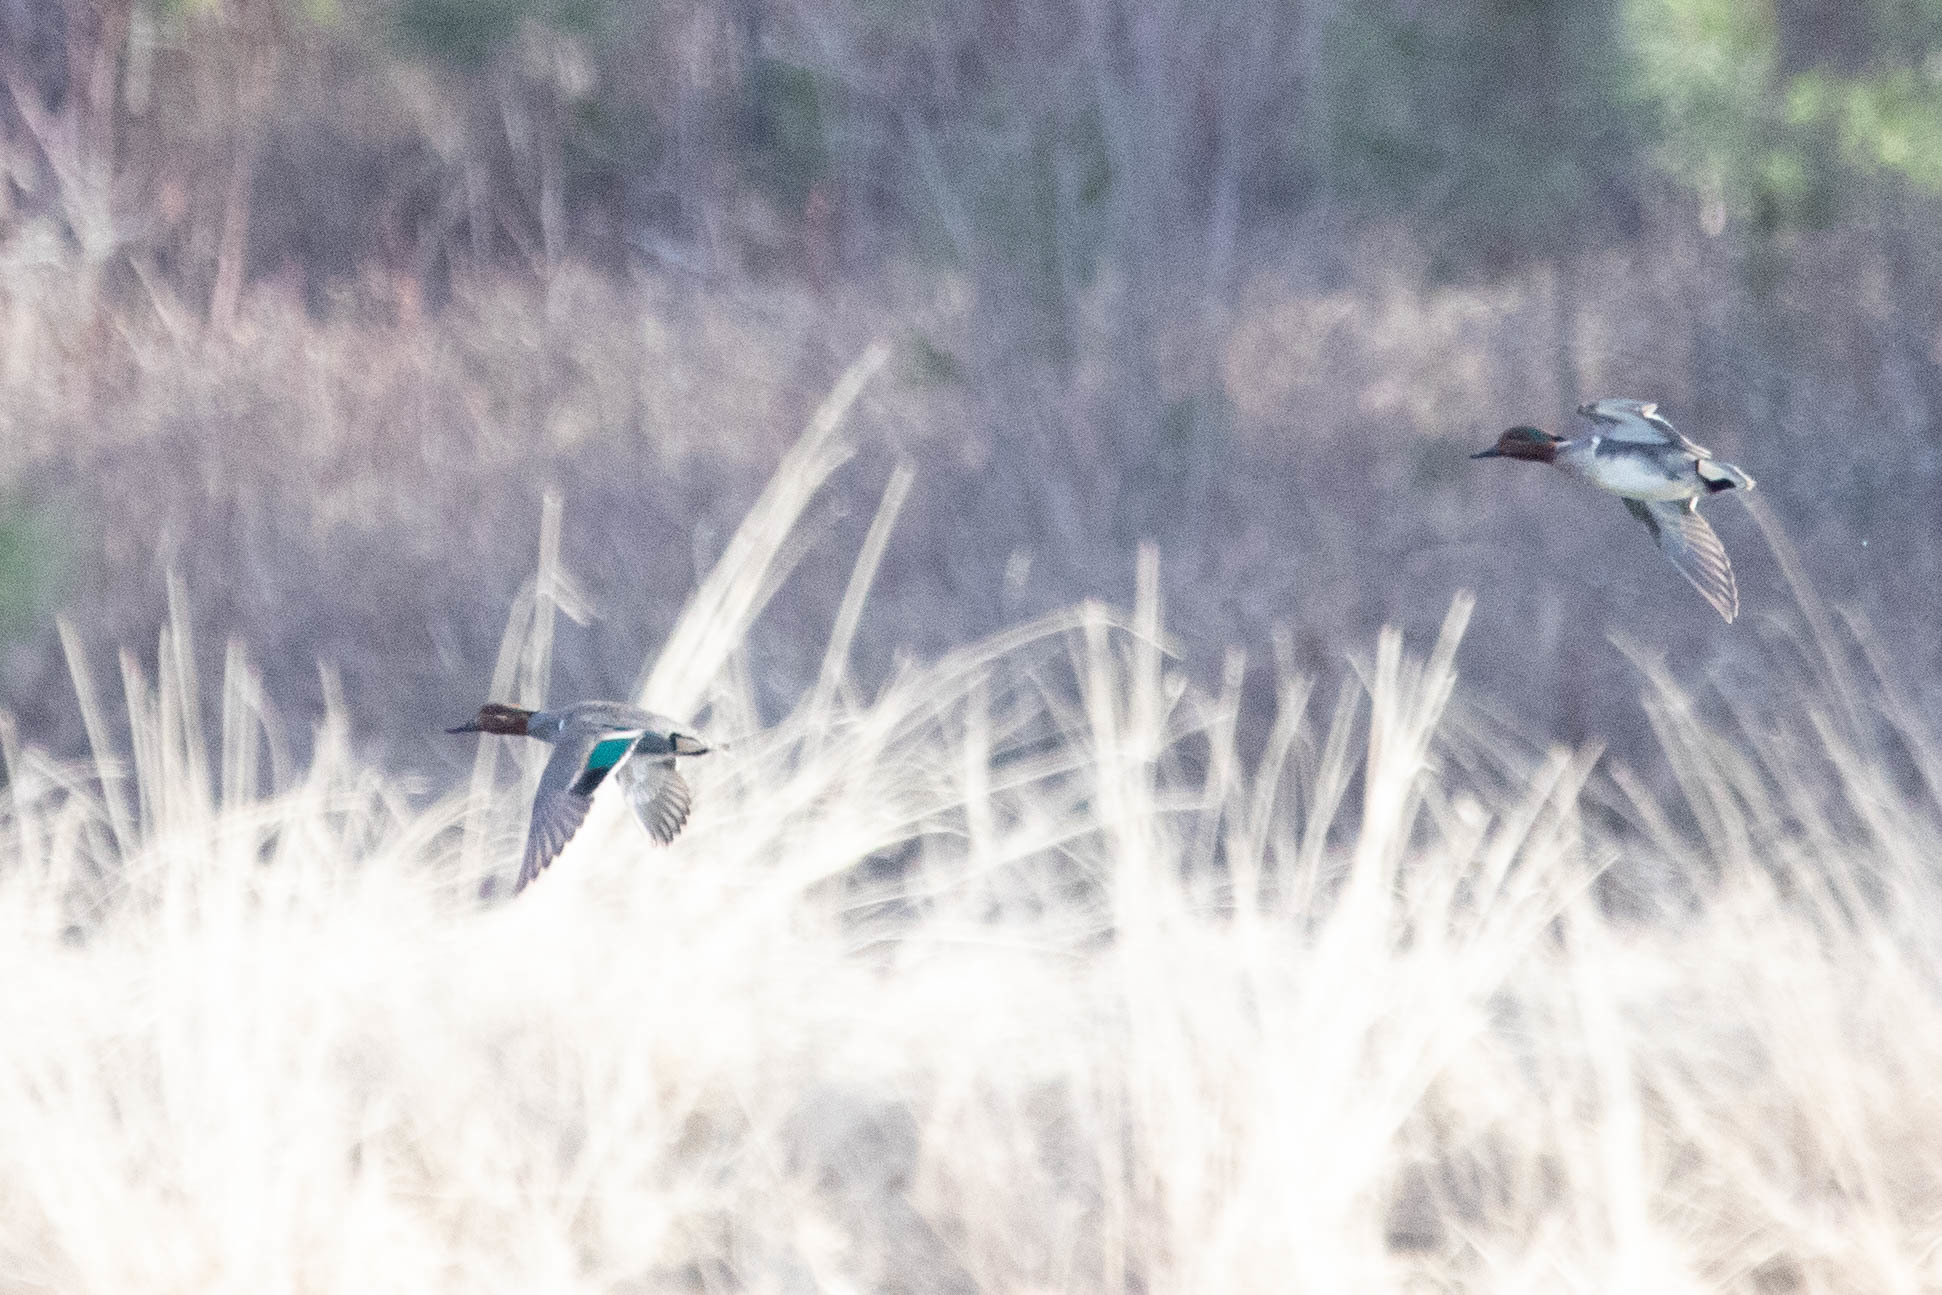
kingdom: Animalia
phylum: Chordata
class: Aves
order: Anseriformes
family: Anatidae
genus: Anas
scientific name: Anas crecca
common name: Eurasian teal
